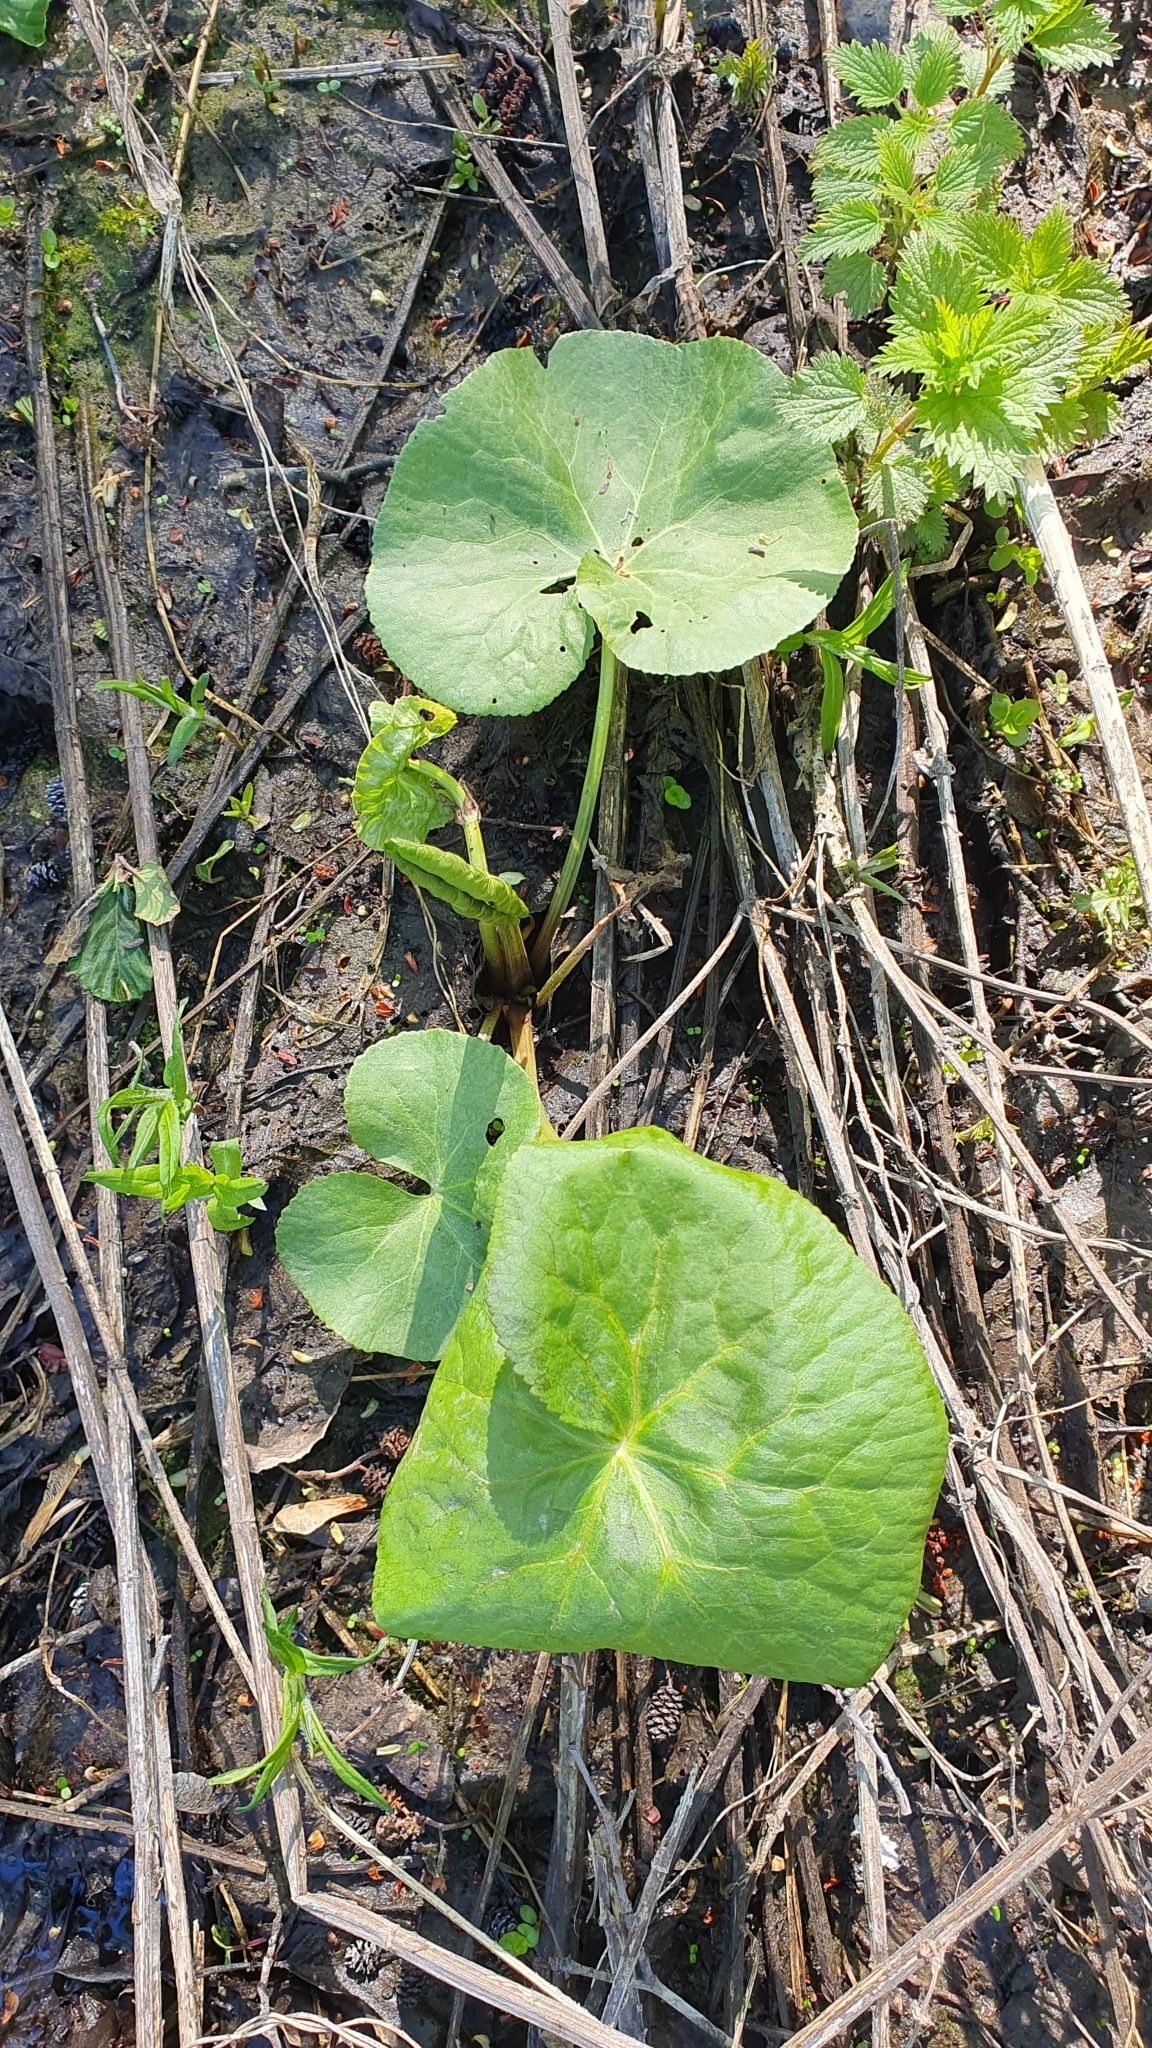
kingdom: Plantae
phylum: Tracheophyta
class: Magnoliopsida
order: Ranunculales
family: Ranunculaceae
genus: Caltha
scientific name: Caltha palustris
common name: Marsh marigold
